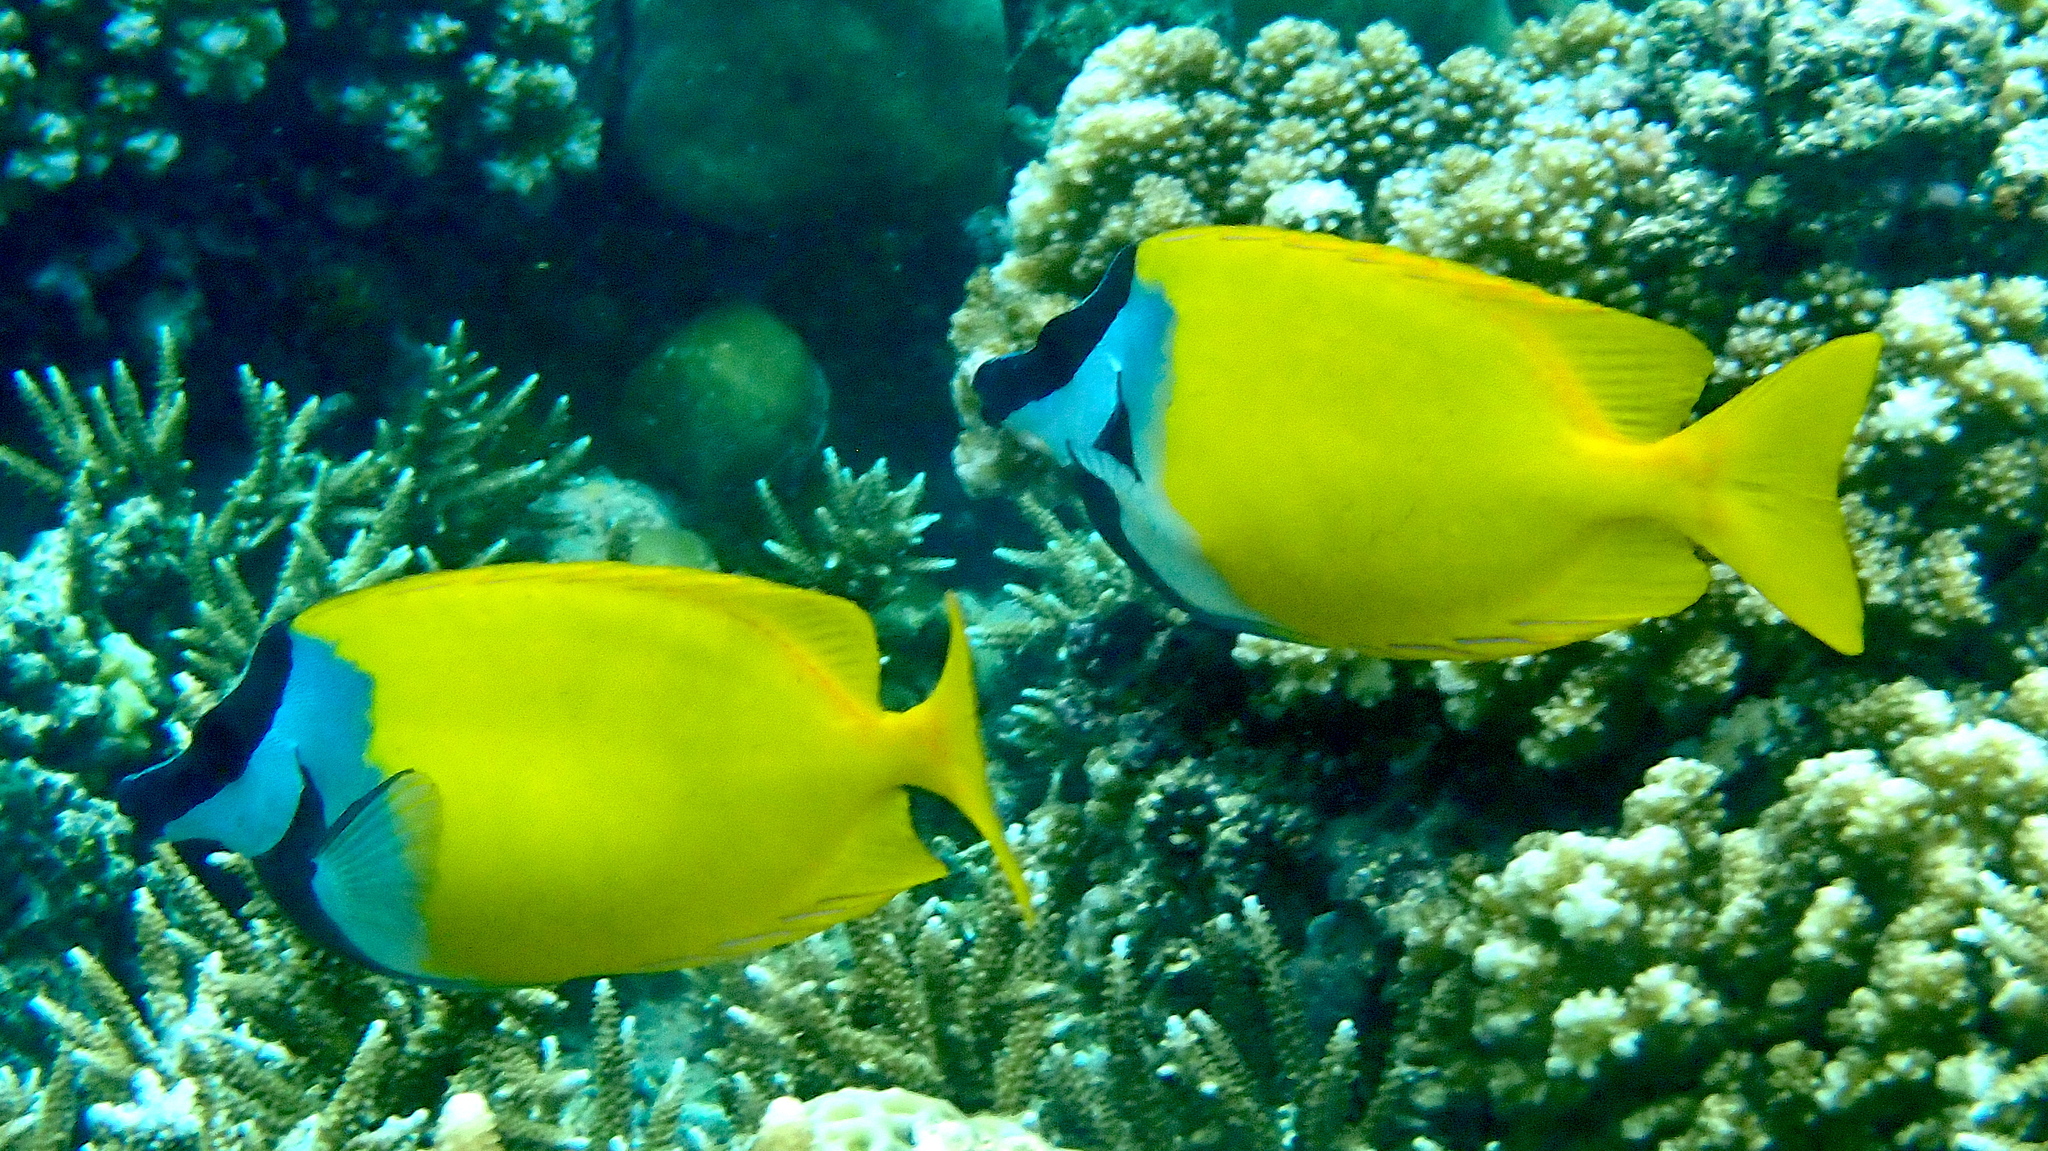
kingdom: Animalia
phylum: Chordata
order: Perciformes
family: Siganidae
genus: Siganus
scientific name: Siganus vulpinus
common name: Foxface
